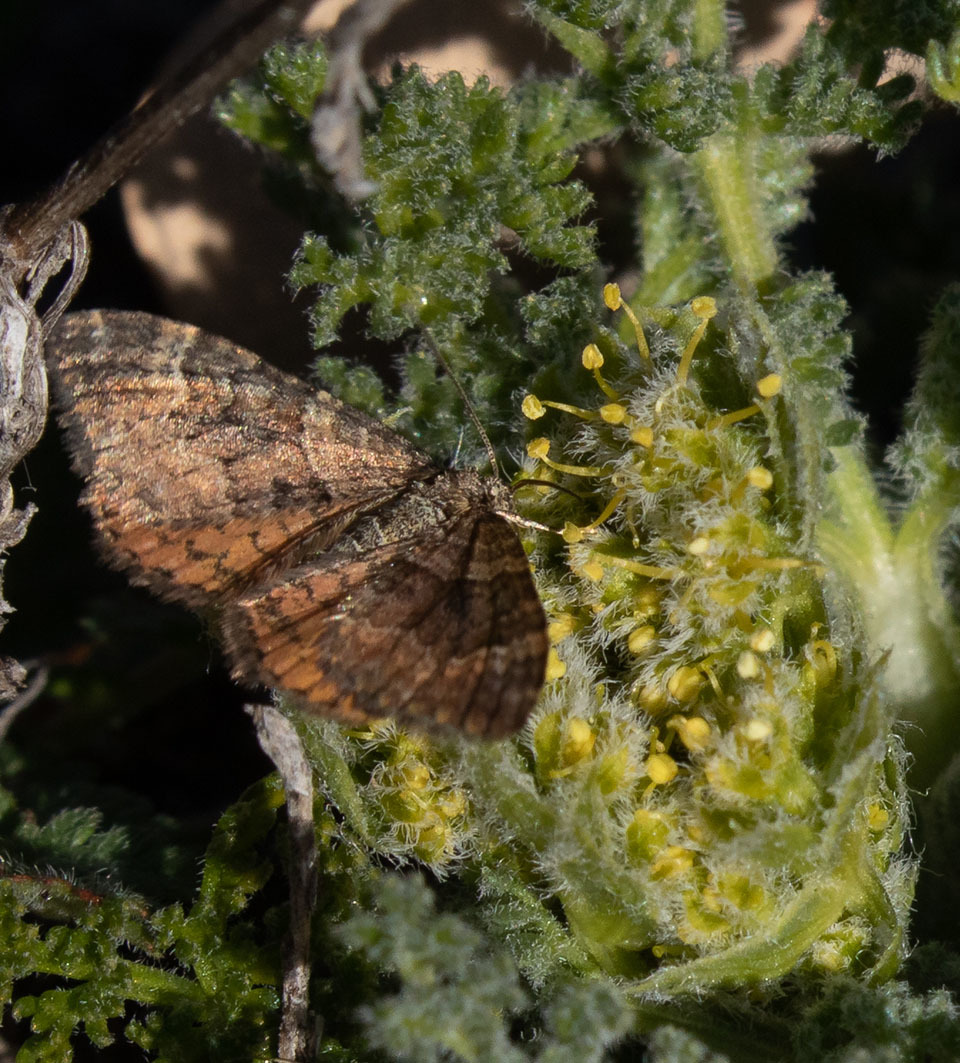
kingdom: Animalia
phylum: Arthropoda
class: Insecta
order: Lepidoptera
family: Geometridae
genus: Epirrhoe
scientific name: Epirrhoe plebeculata
